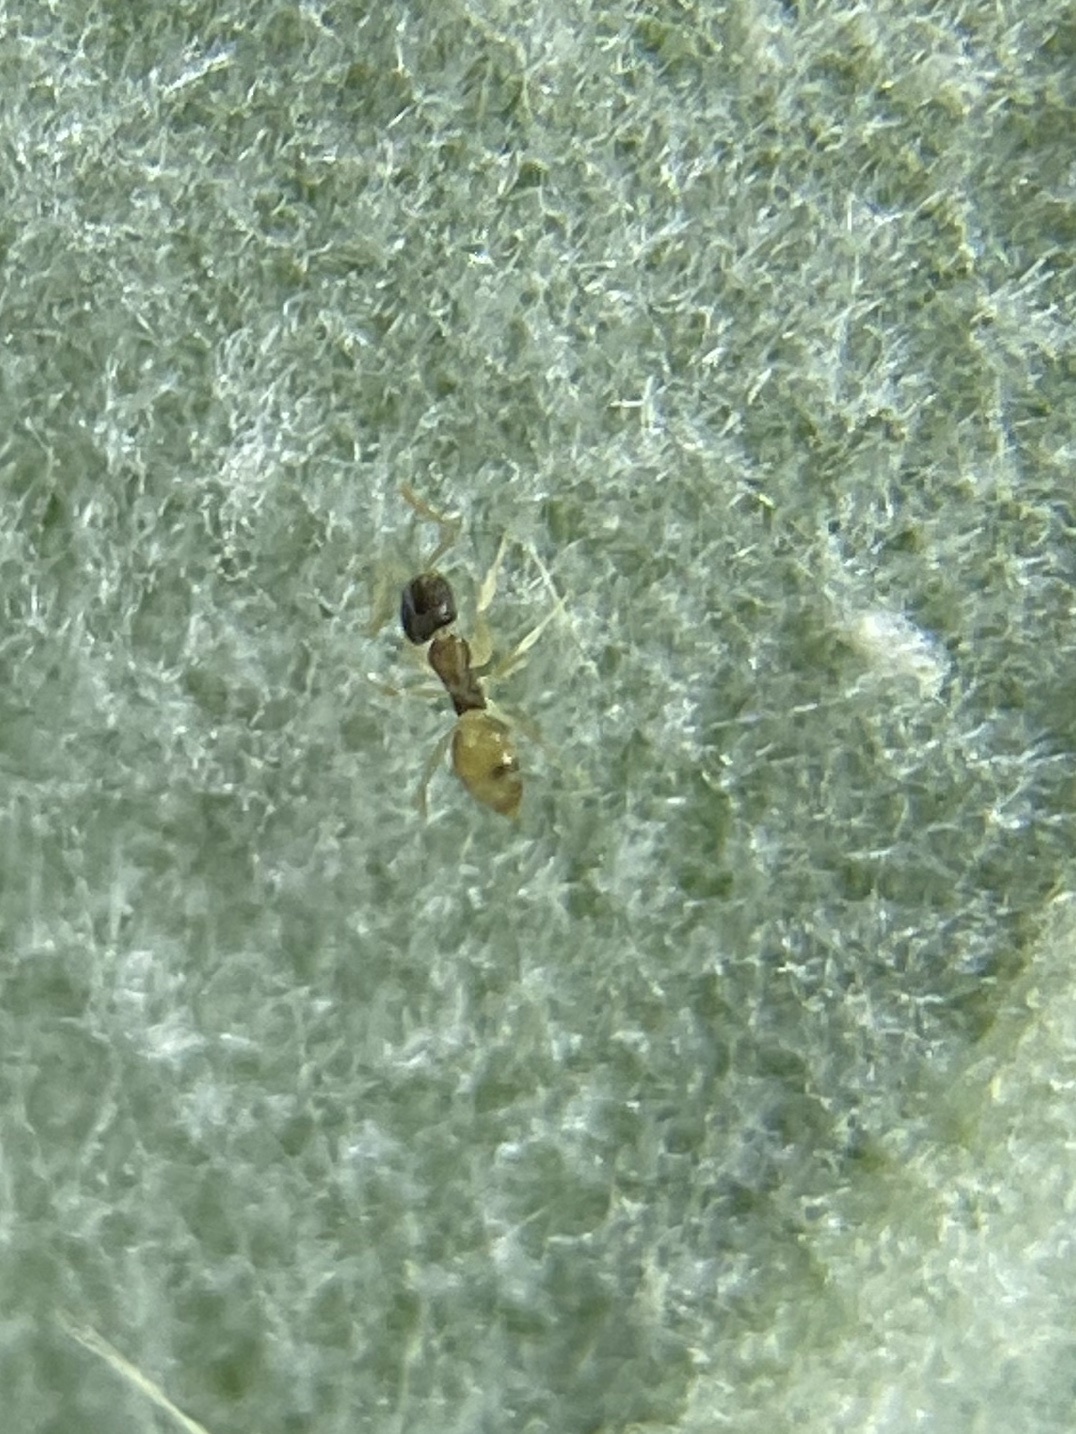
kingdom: Animalia
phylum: Arthropoda
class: Insecta
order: Hymenoptera
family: Formicidae
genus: Tapinoma
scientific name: Tapinoma melanocephalum
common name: Ghost ant
